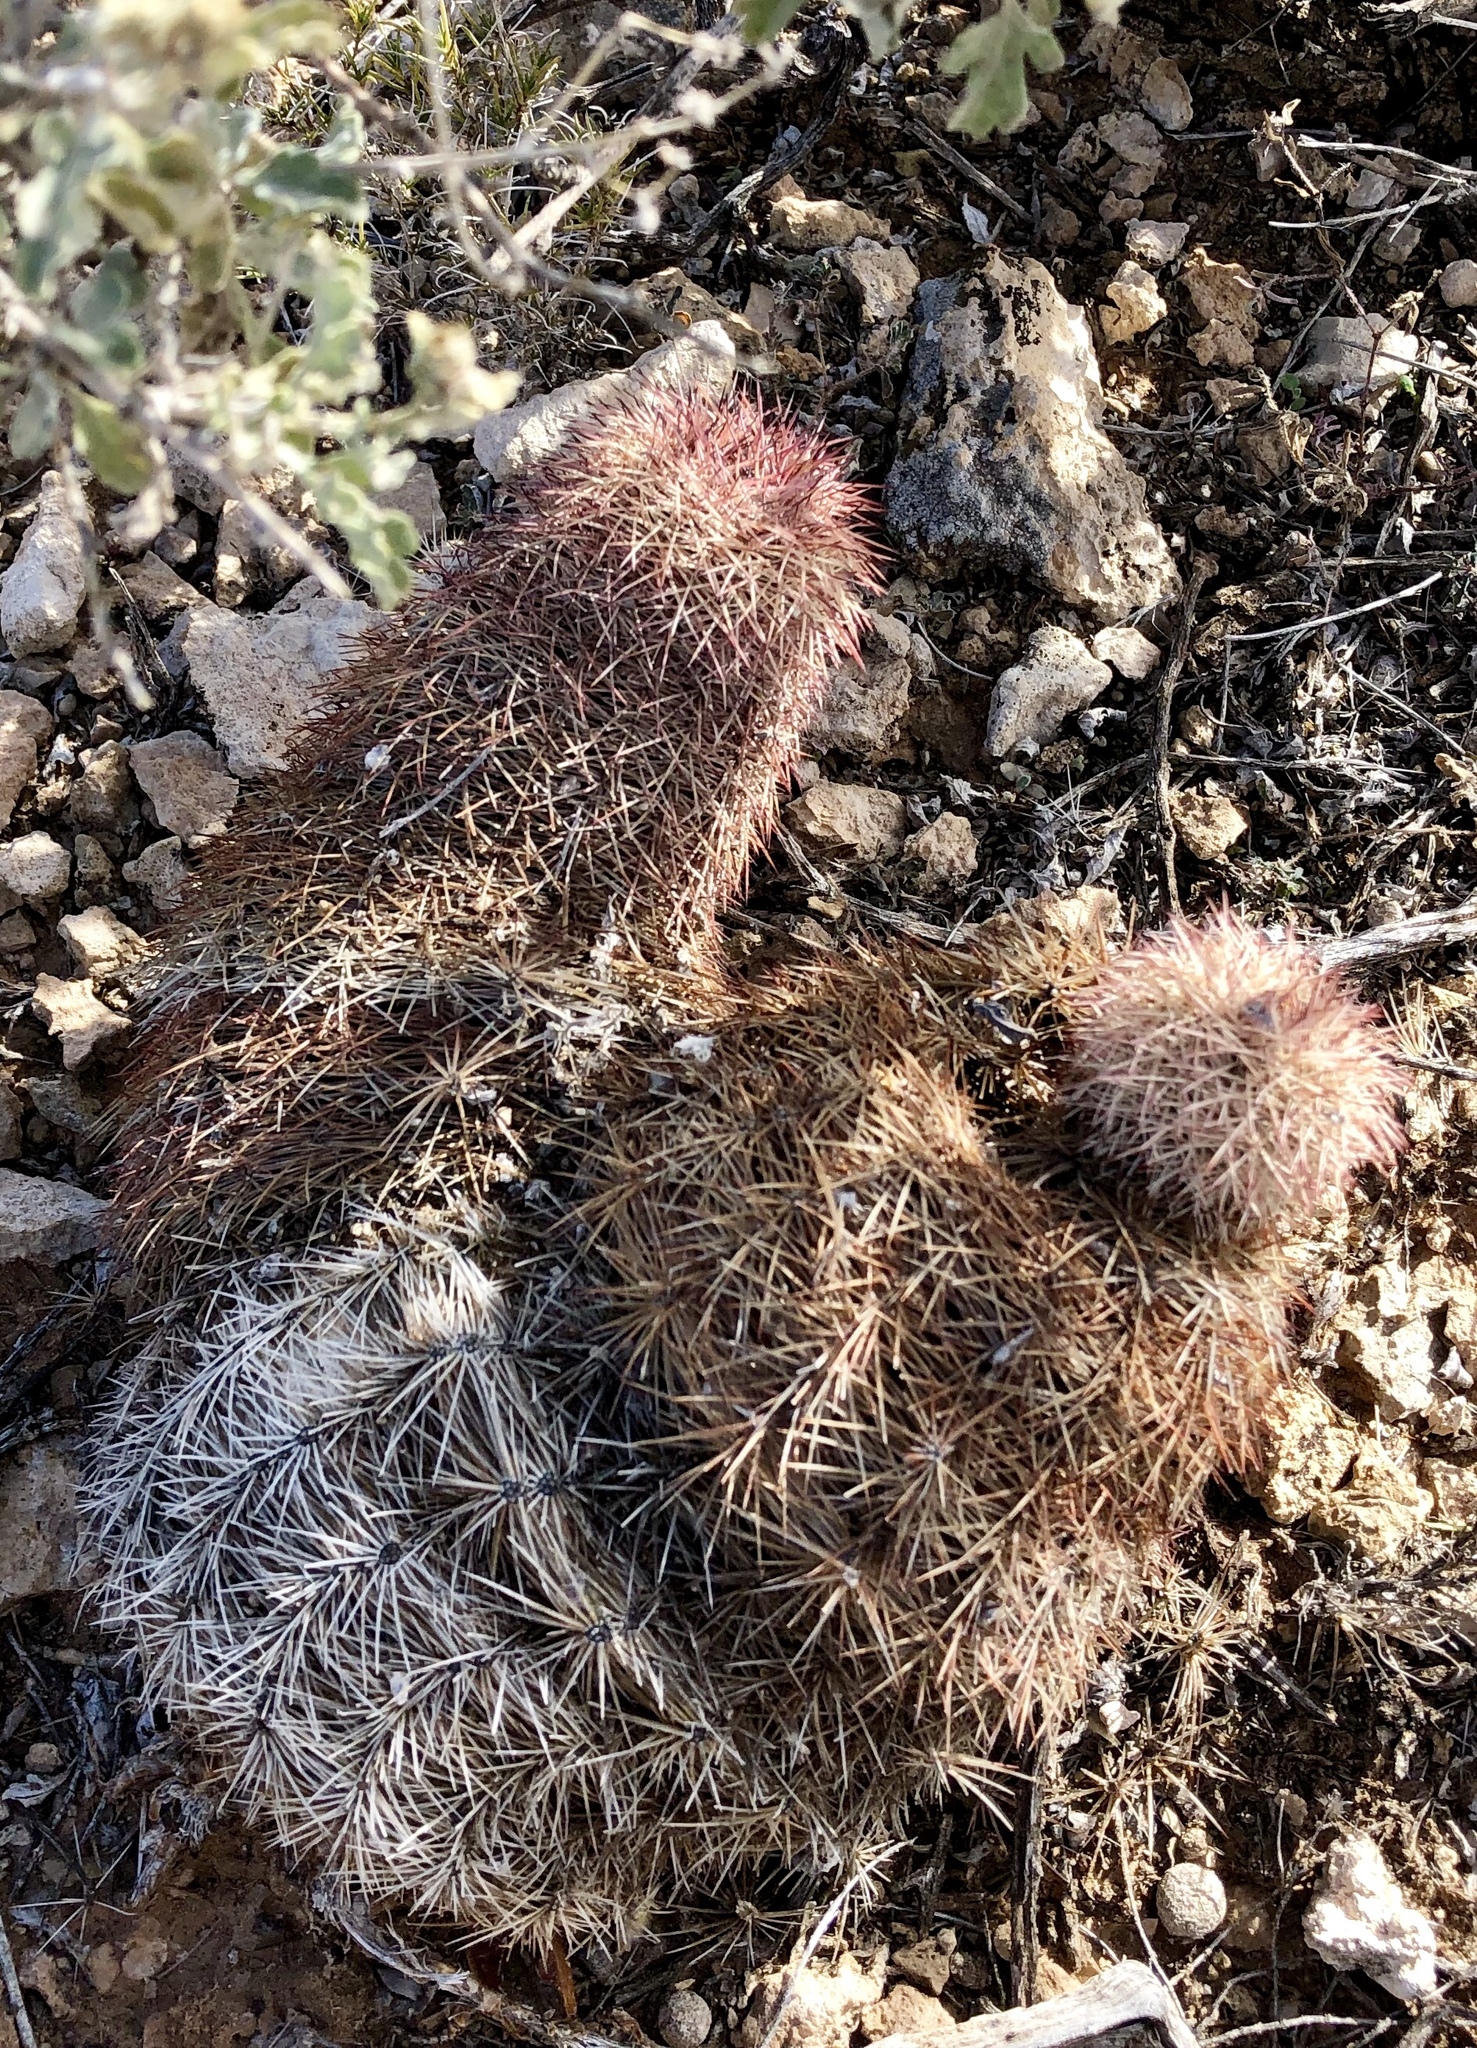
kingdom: Plantae
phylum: Tracheophyta
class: Magnoliopsida
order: Caryophyllales
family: Cactaceae
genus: Echinocereus
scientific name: Echinocereus dasyacanthus
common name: Spiny hedgehog cactus
